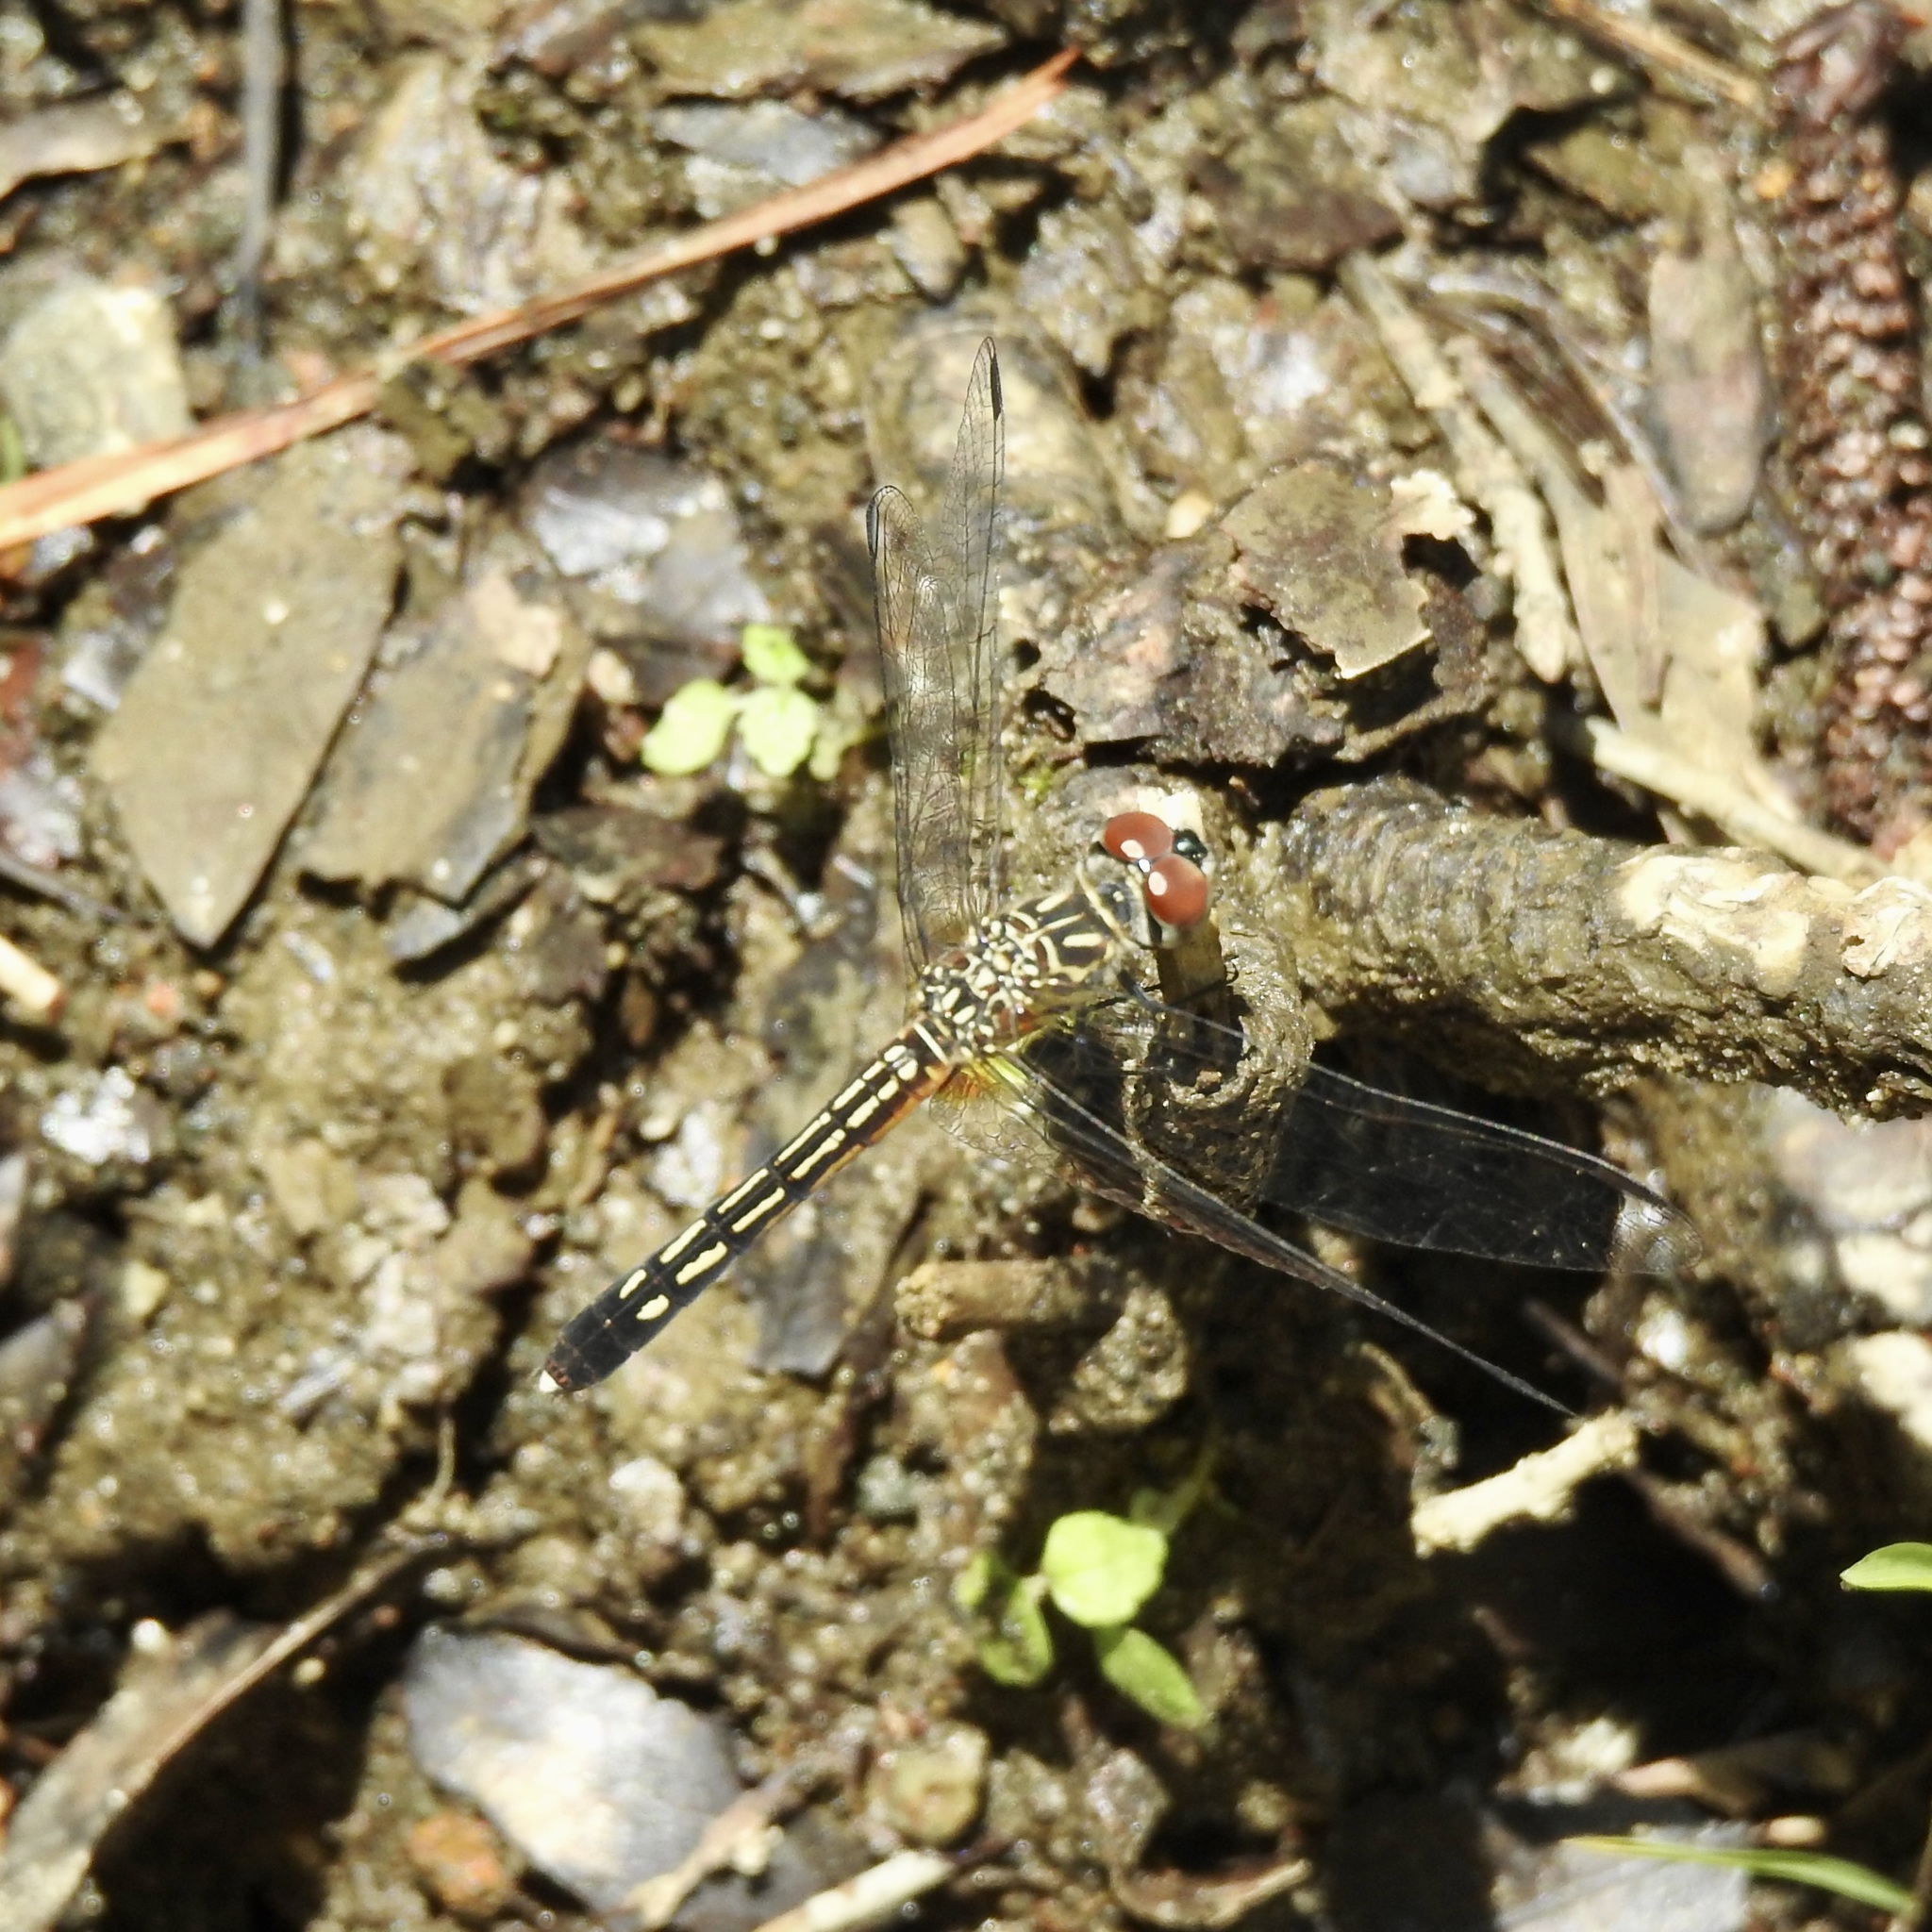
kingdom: Animalia
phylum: Arthropoda
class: Insecta
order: Odonata
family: Libellulidae
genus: Pachydiplax
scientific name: Pachydiplax longipennis
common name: Blue dasher
